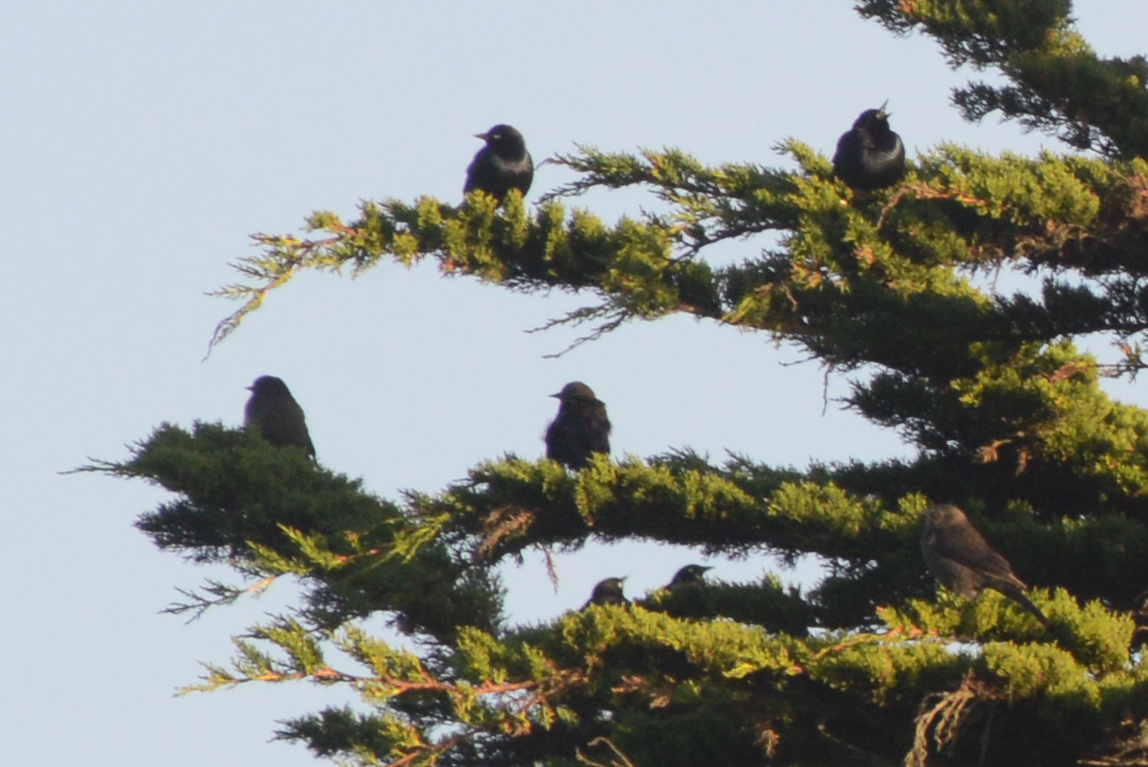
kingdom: Animalia
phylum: Chordata
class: Aves
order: Passeriformes
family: Icteridae
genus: Euphagus
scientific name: Euphagus cyanocephalus
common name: Brewer's blackbird
